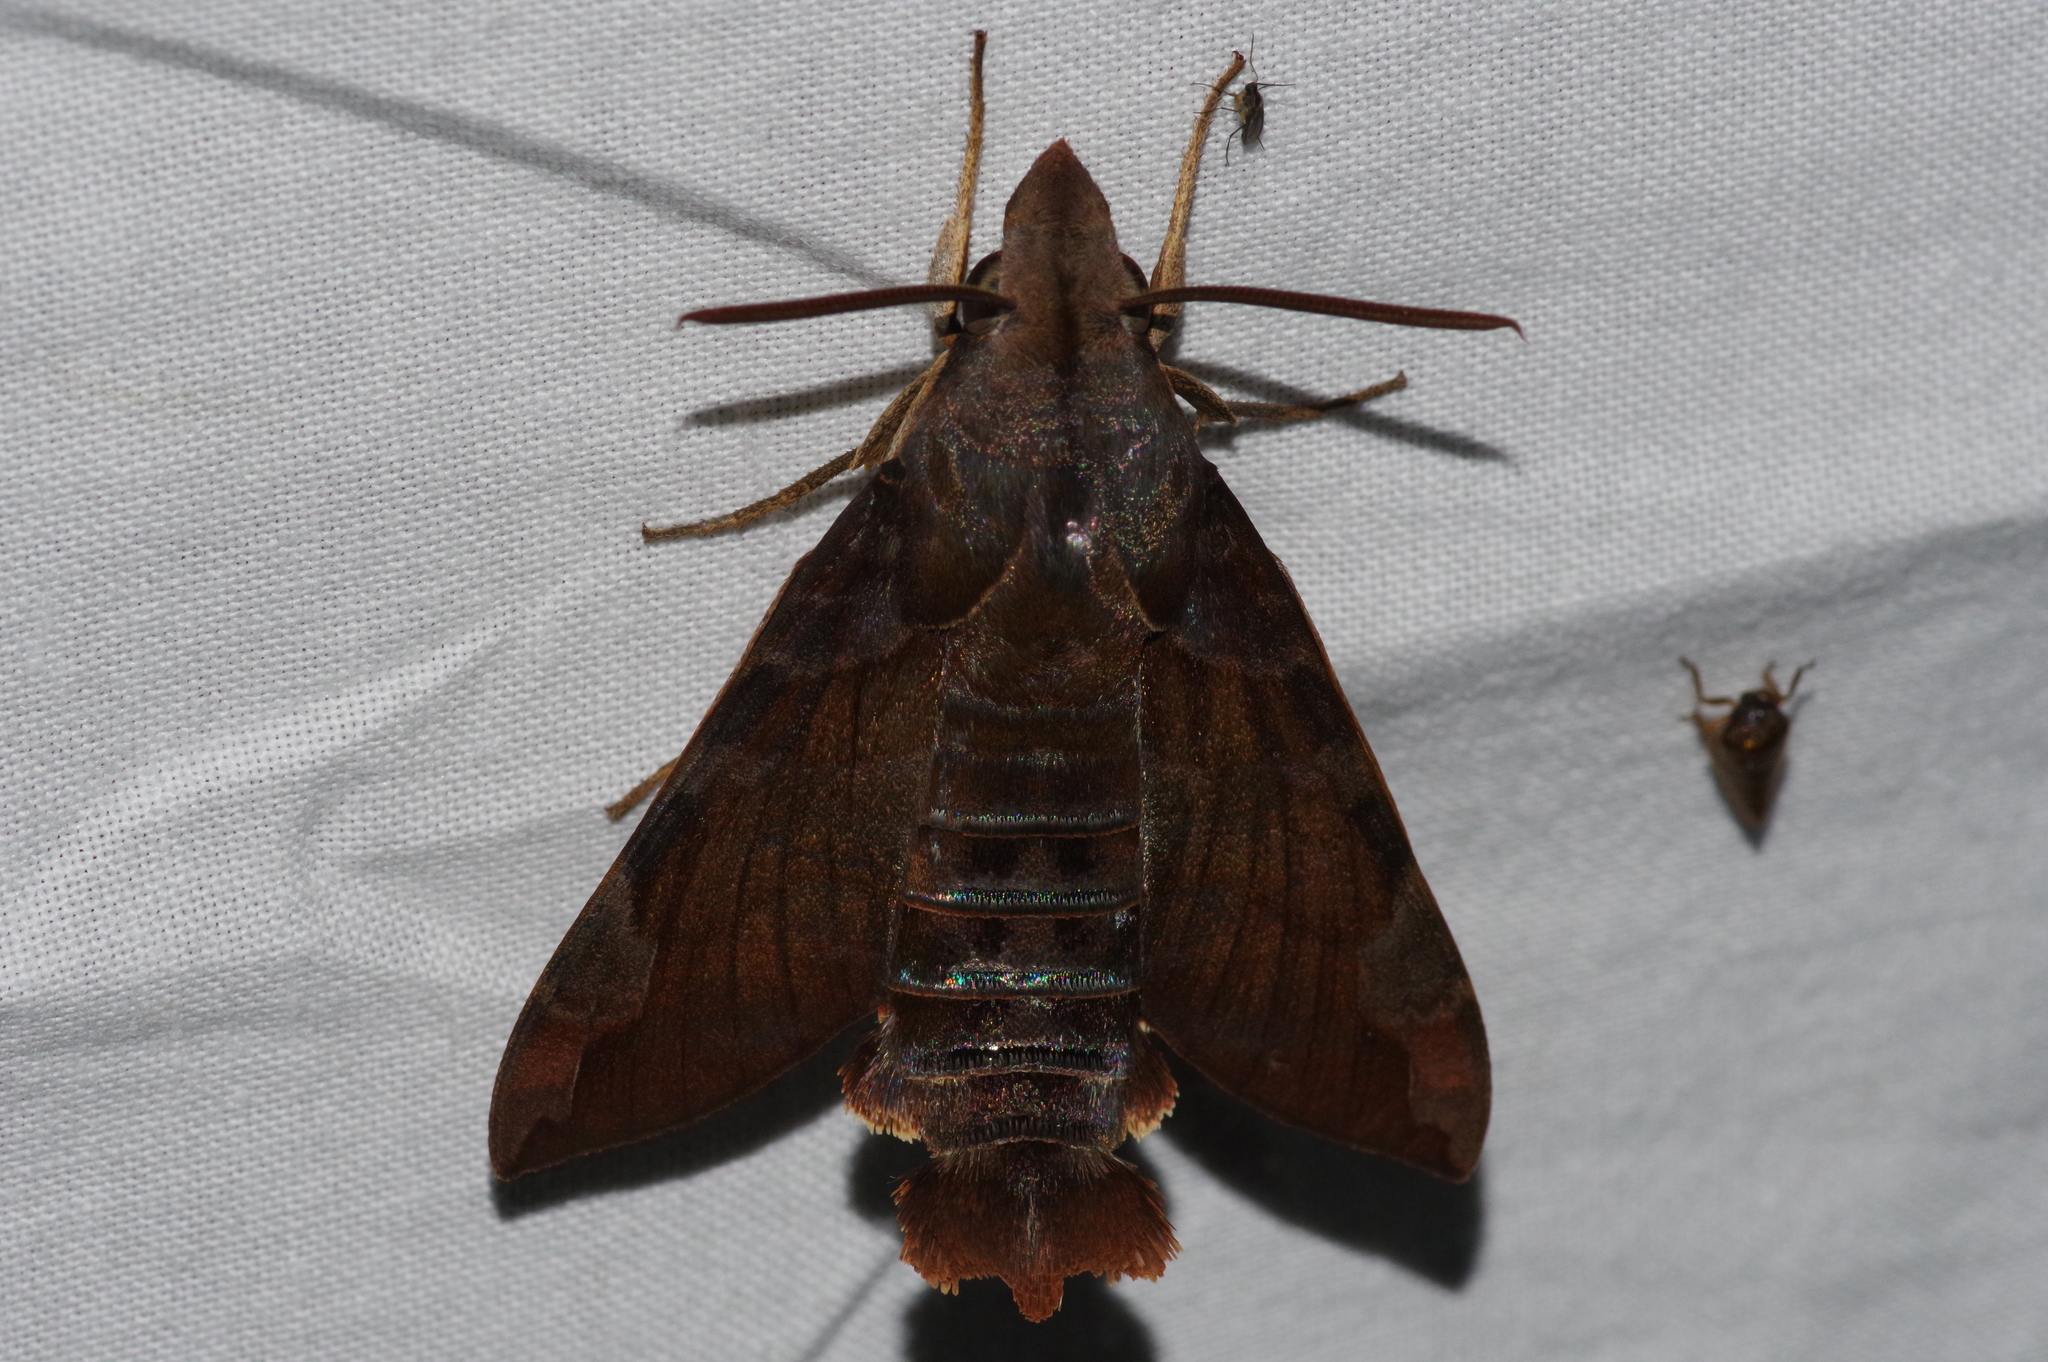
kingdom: Animalia
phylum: Arthropoda
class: Insecta
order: Lepidoptera
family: Sphingidae
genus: Macroglossum
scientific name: Macroglossum saga
